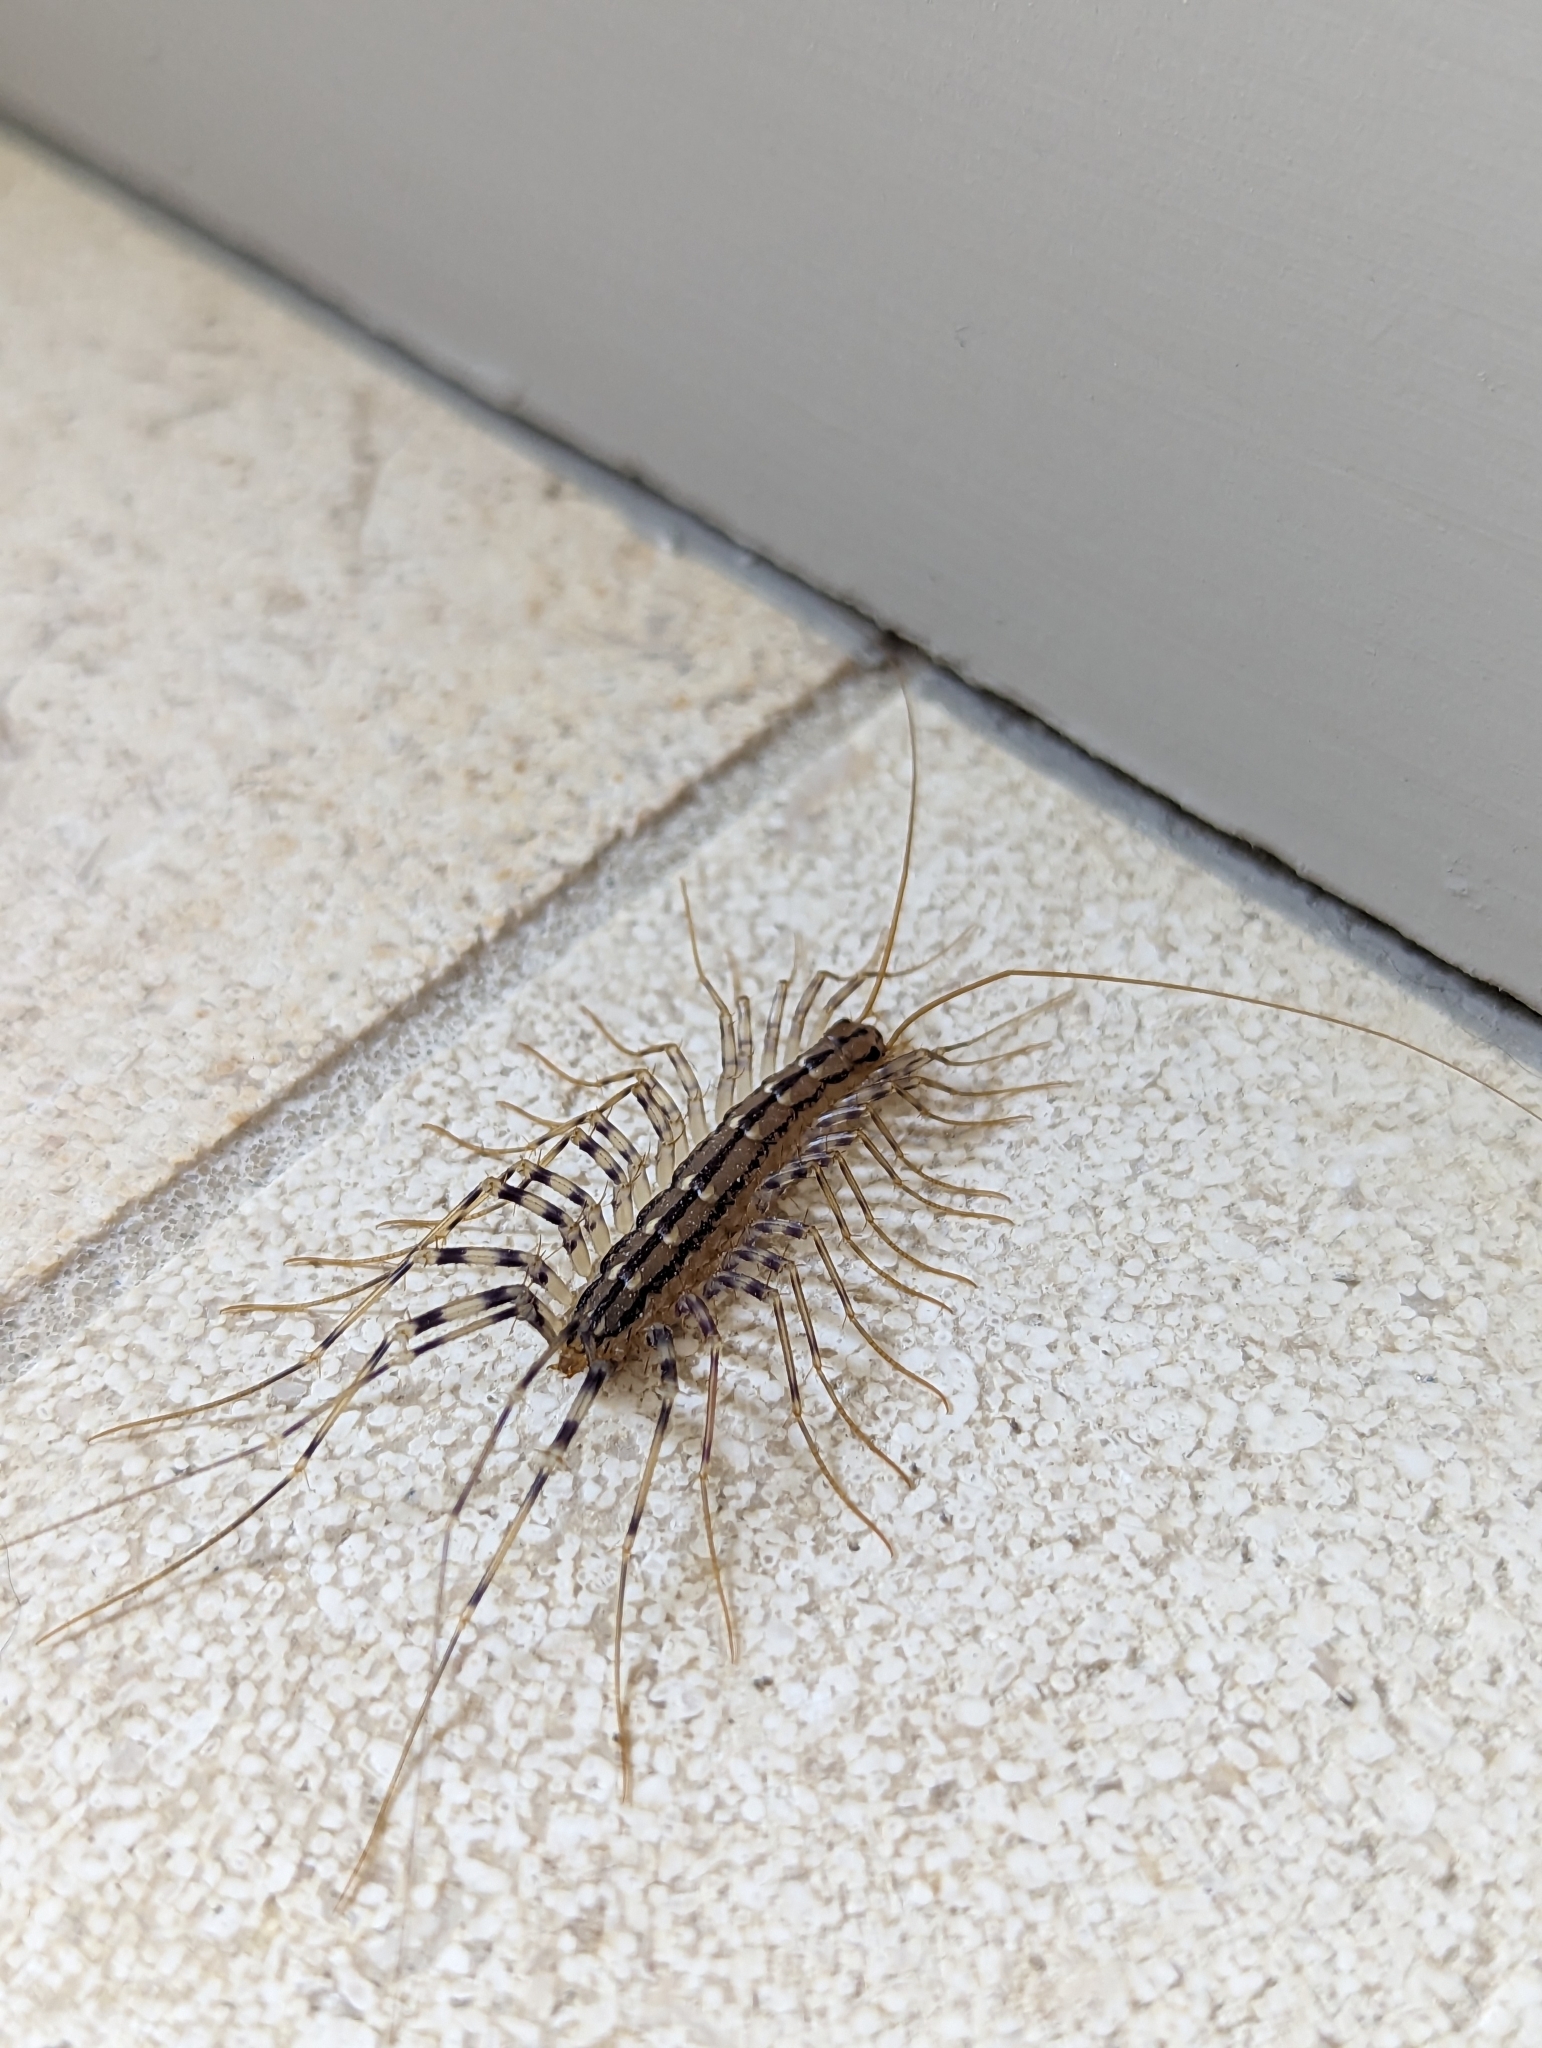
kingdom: Animalia
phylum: Arthropoda
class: Chilopoda
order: Scutigeromorpha
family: Scutigeridae
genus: Scutigera
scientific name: Scutigera coleoptrata
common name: House centipede
